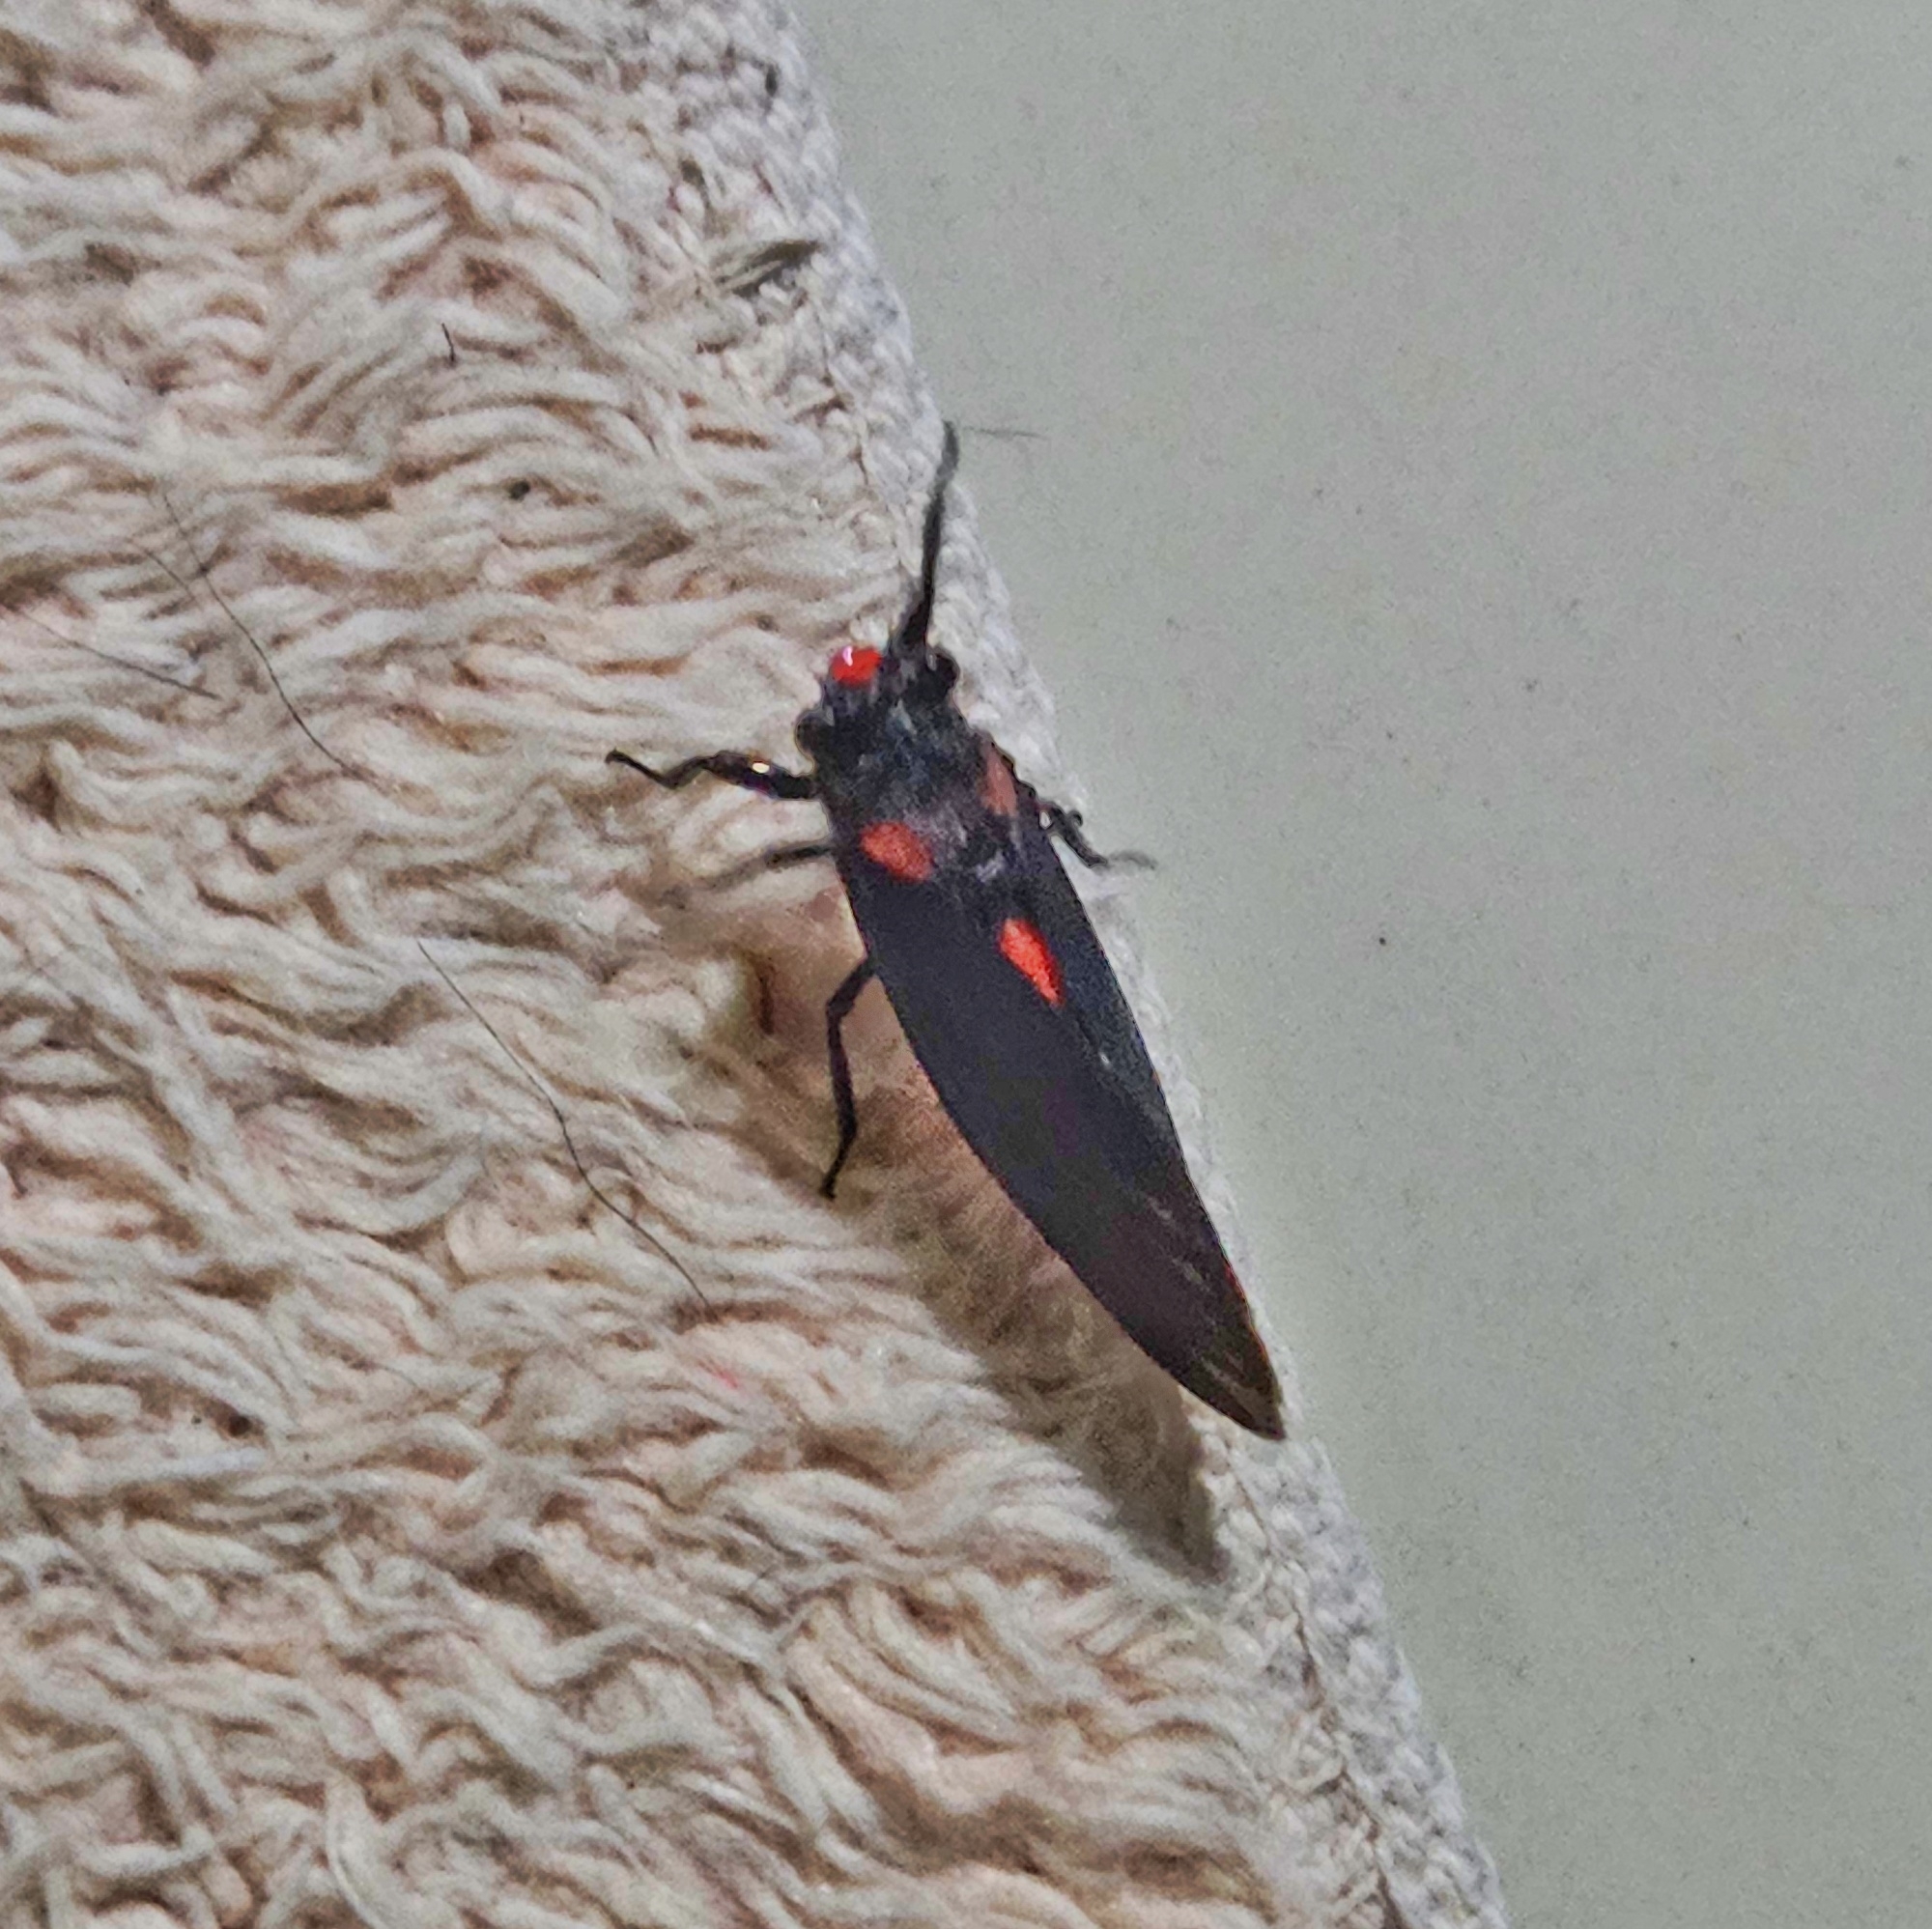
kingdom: Animalia
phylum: Arthropoda
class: Insecta
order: Hemiptera
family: Cicadidae
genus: Huechys
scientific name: Huechys sanguinea
